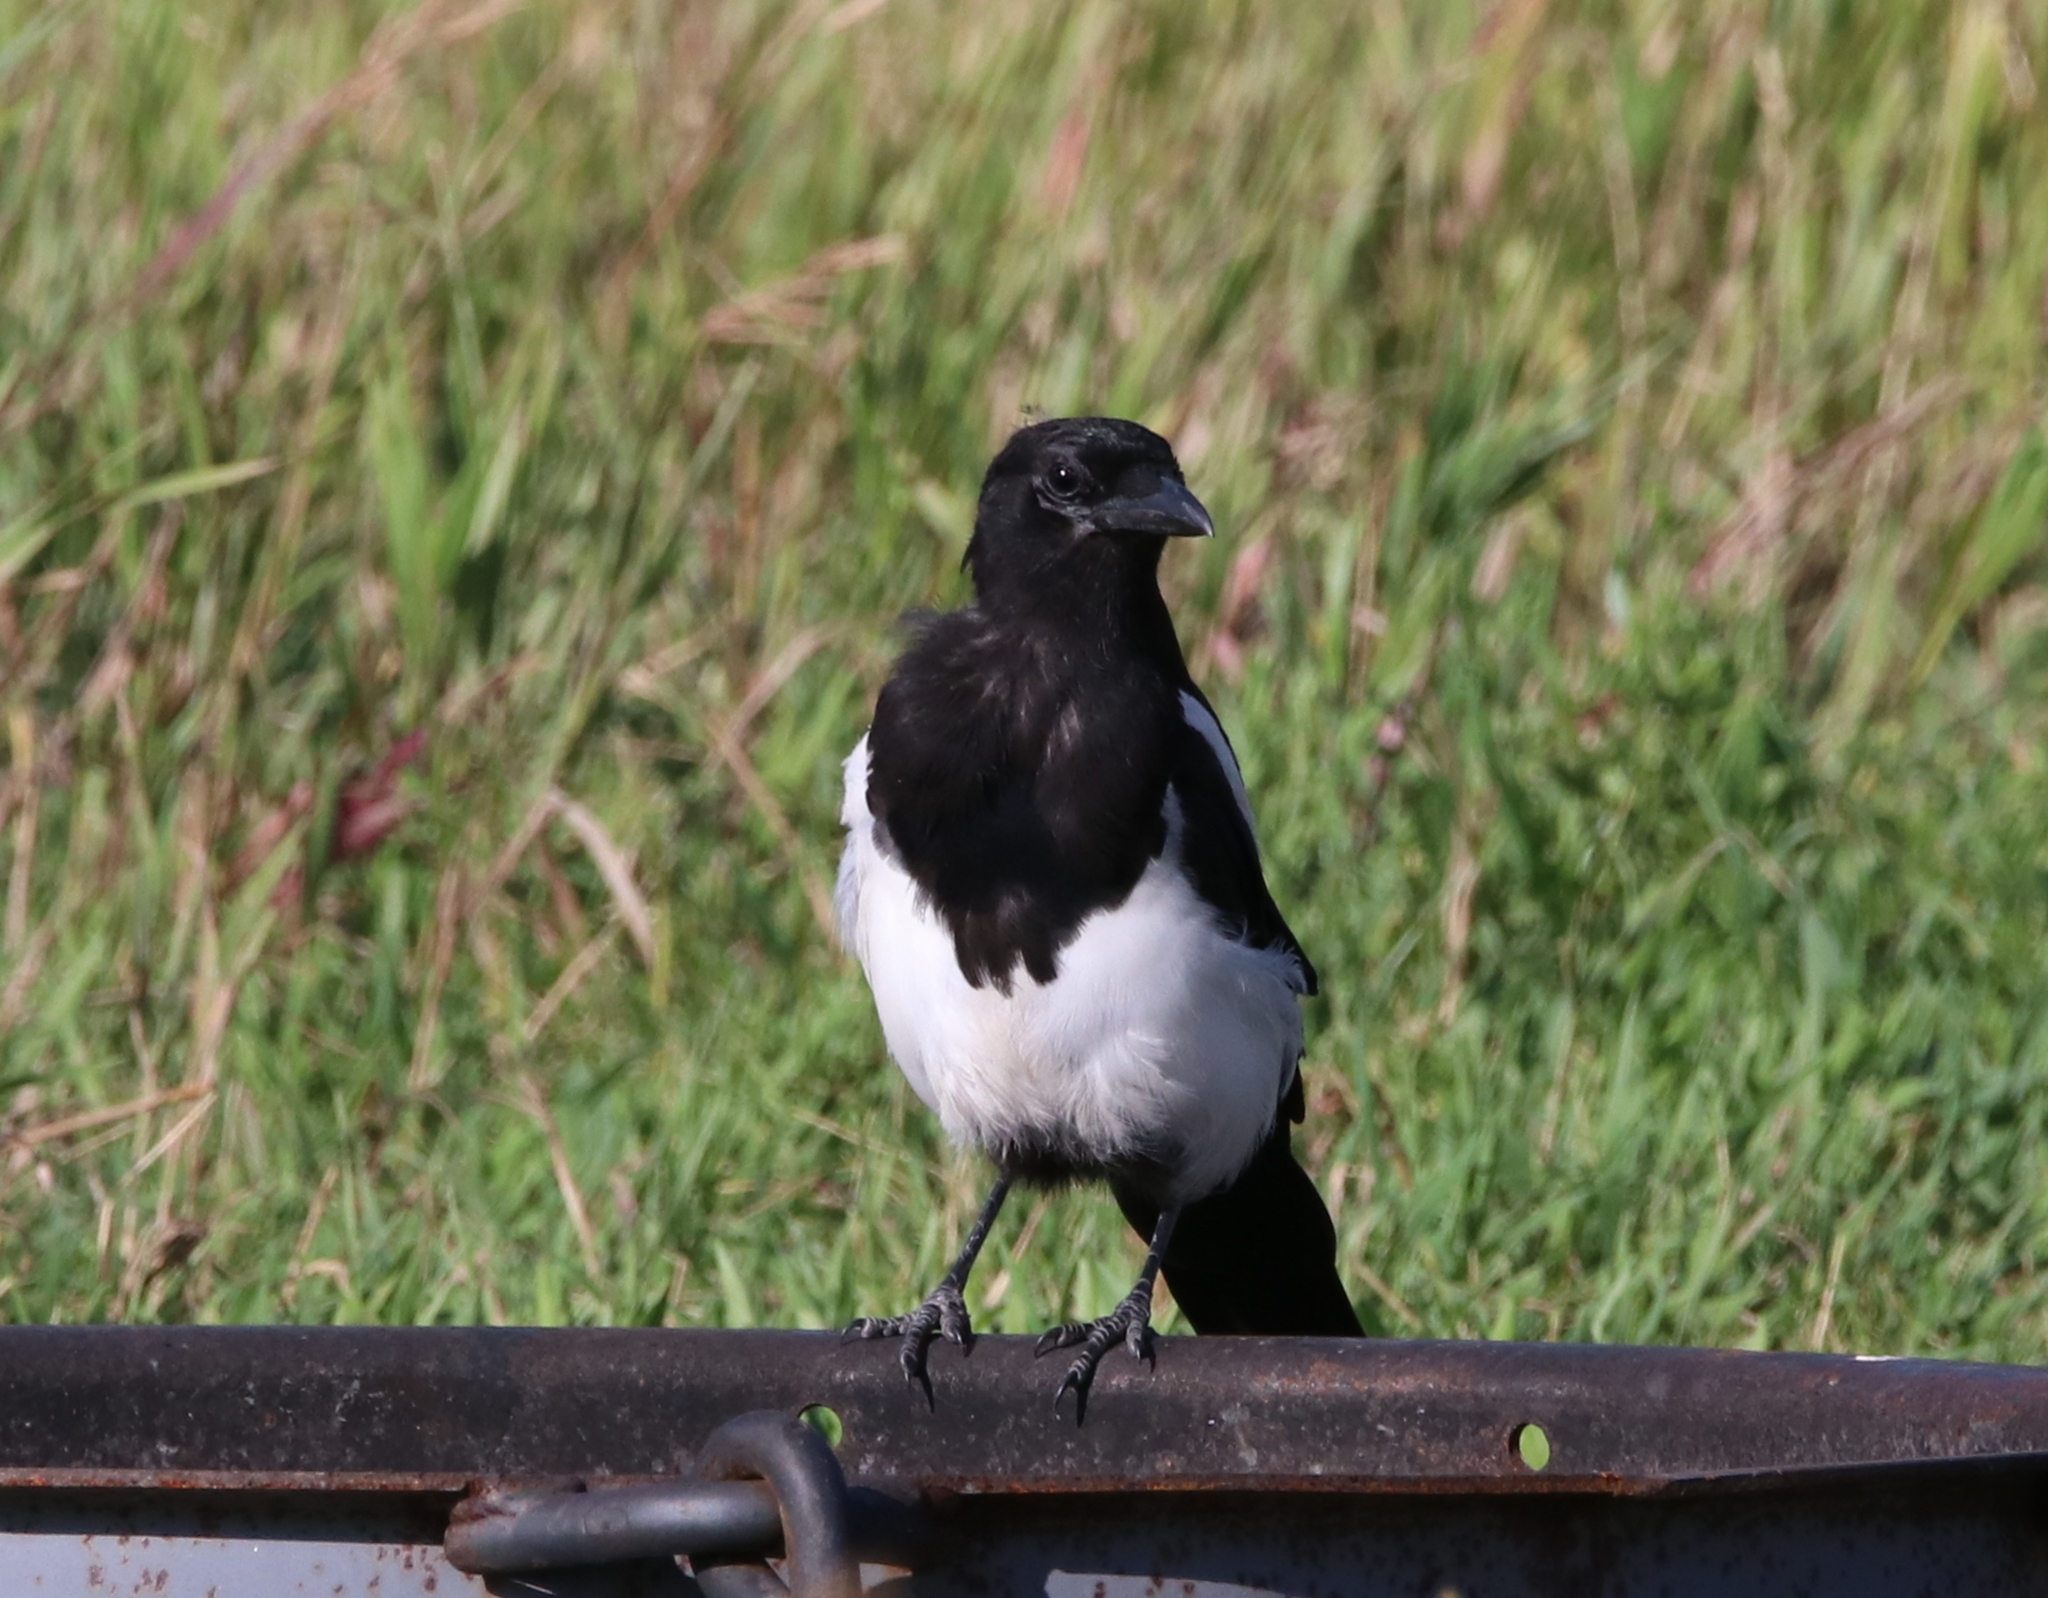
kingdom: Animalia
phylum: Chordata
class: Aves
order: Passeriformes
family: Corvidae
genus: Pica
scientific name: Pica hudsonia
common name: Black-billed magpie
